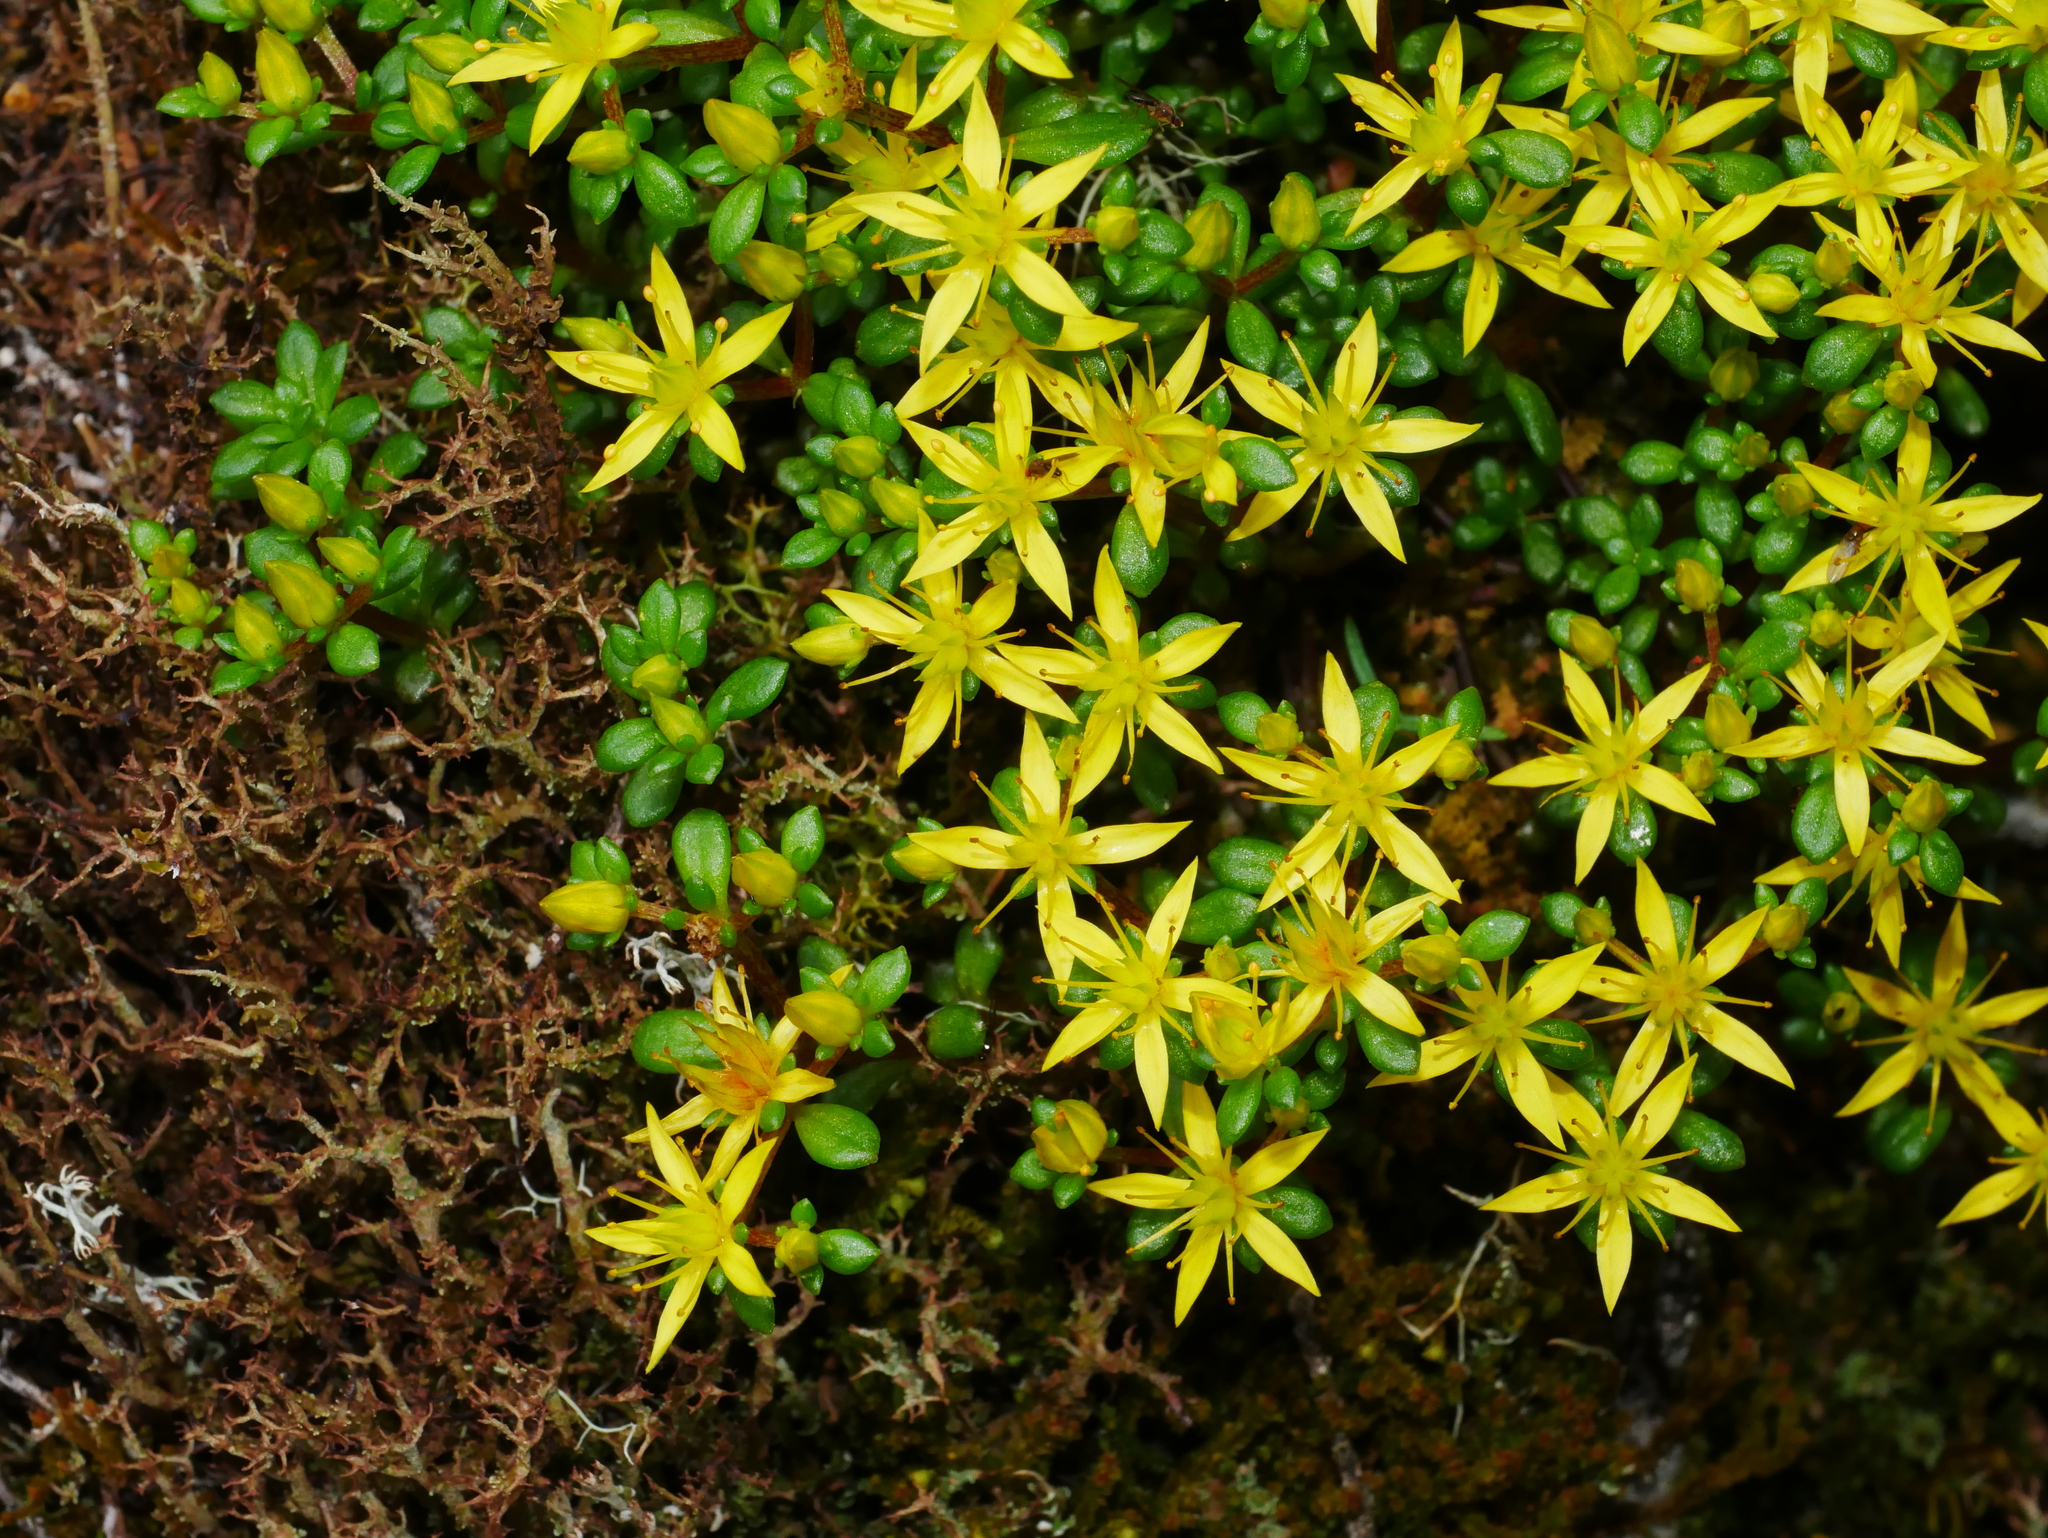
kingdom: Plantae
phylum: Tracheophyta
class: Magnoliopsida
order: Saxifragales
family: Crassulaceae
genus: Sedum
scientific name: Sedum erythrospermum
